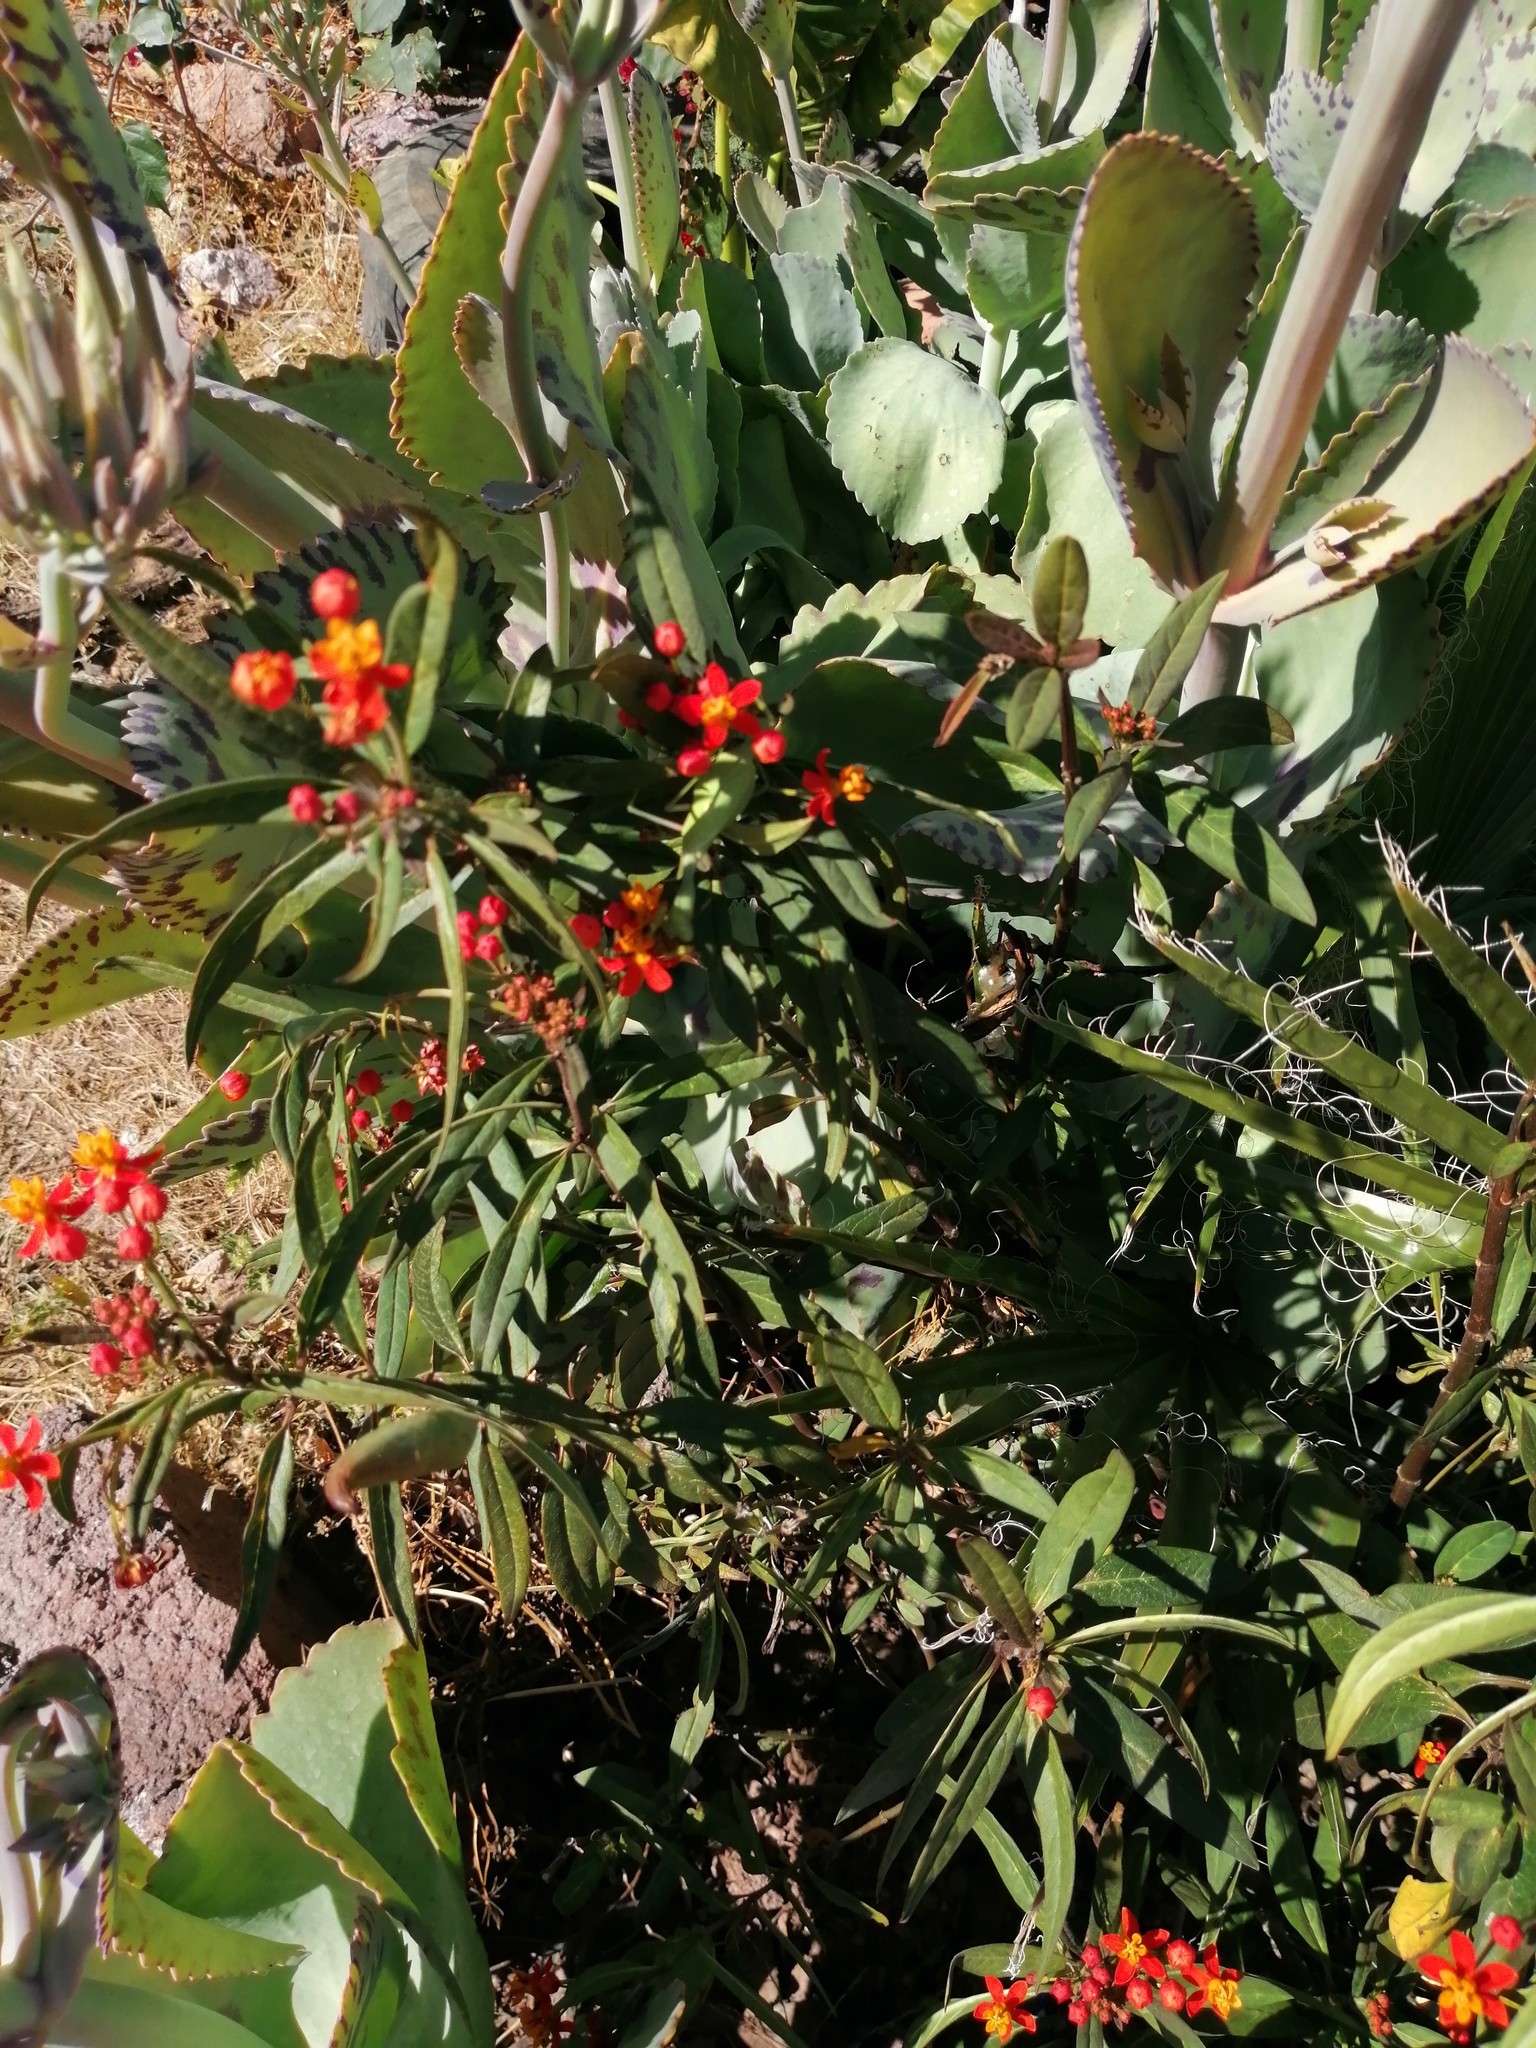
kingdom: Plantae
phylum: Tracheophyta
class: Magnoliopsida
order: Gentianales
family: Apocynaceae
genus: Asclepias
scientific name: Asclepias curassavica
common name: Bloodflower
